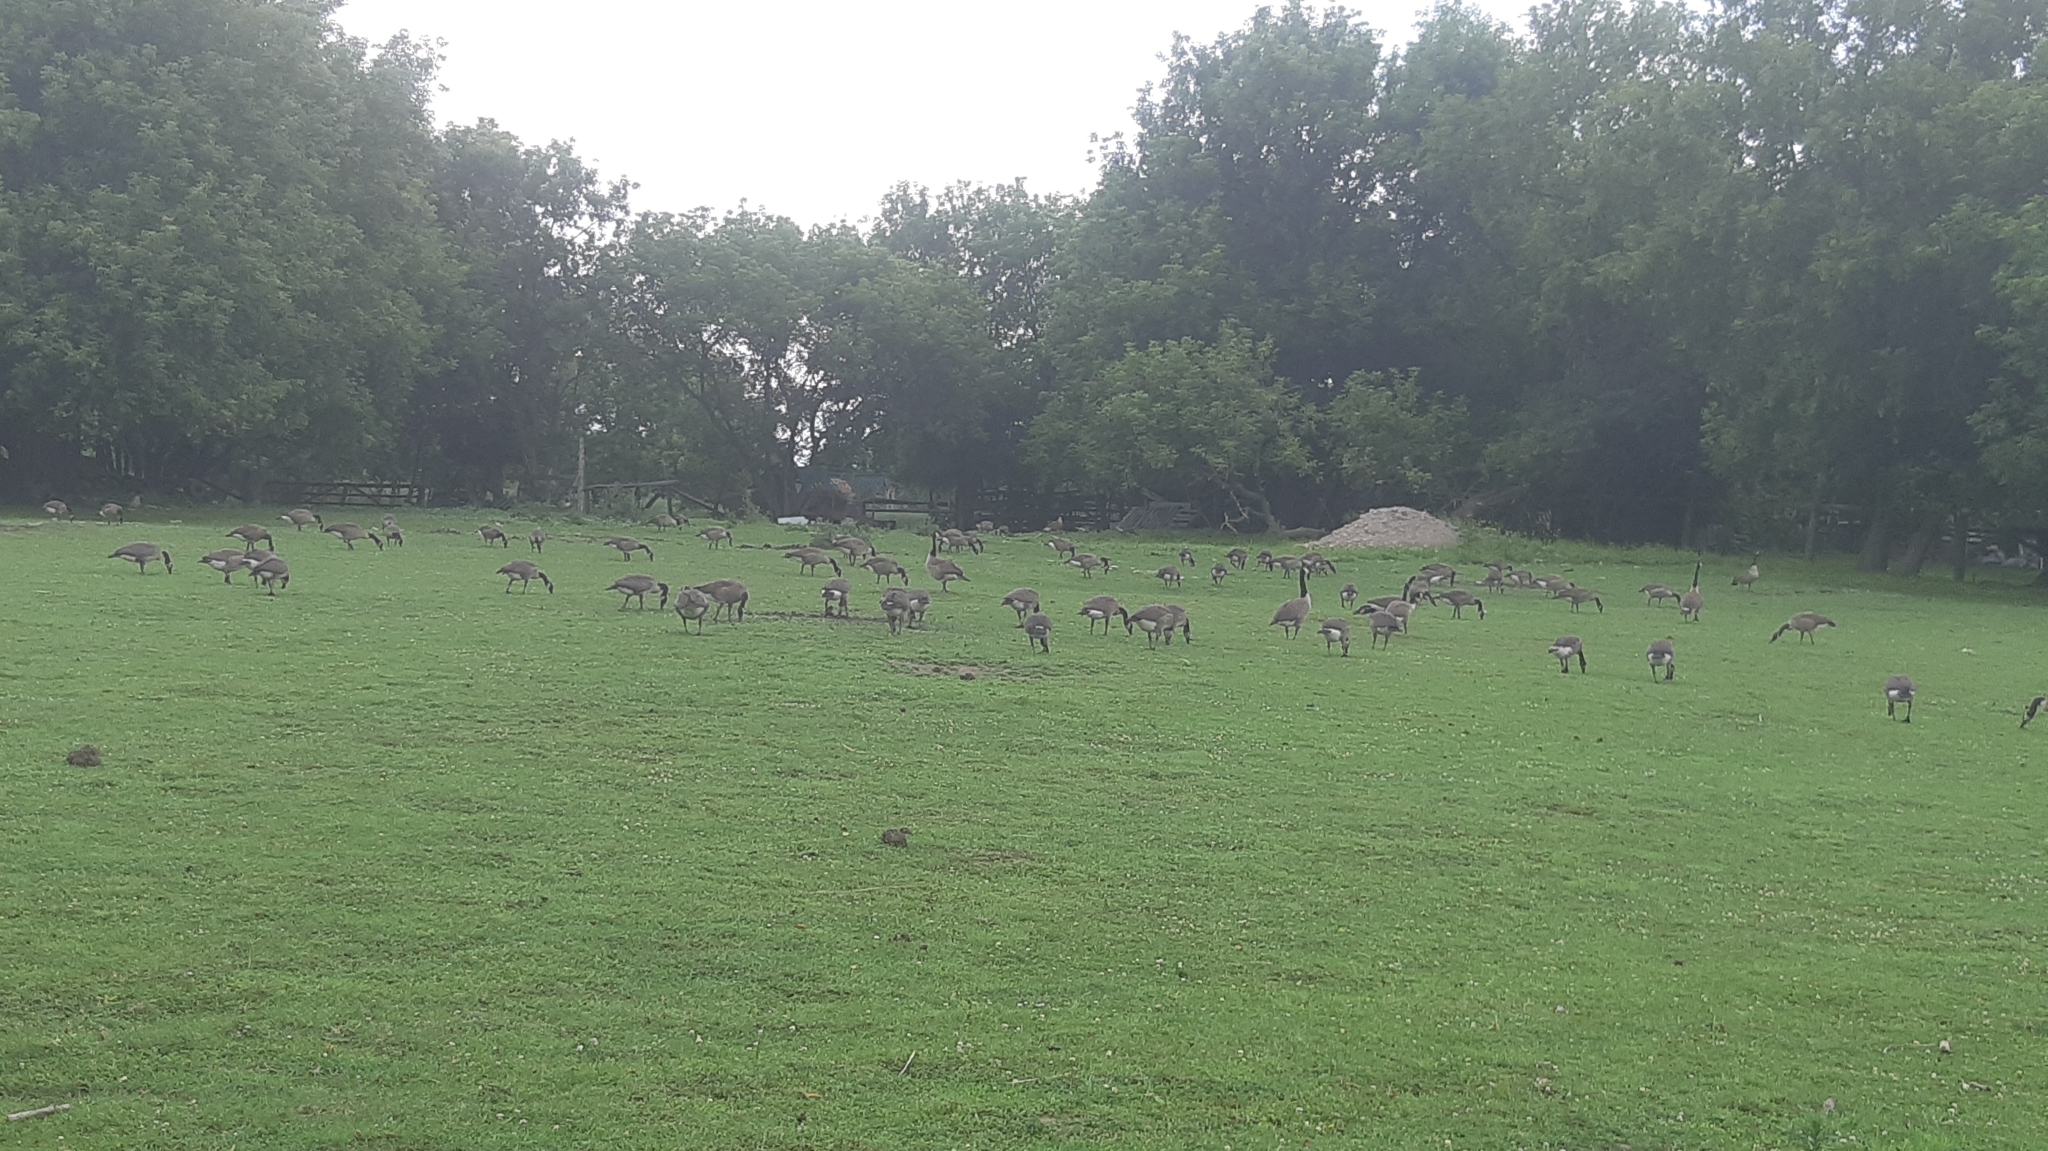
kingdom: Animalia
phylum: Chordata
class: Aves
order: Anseriformes
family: Anatidae
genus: Branta
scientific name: Branta canadensis
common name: Canada goose
